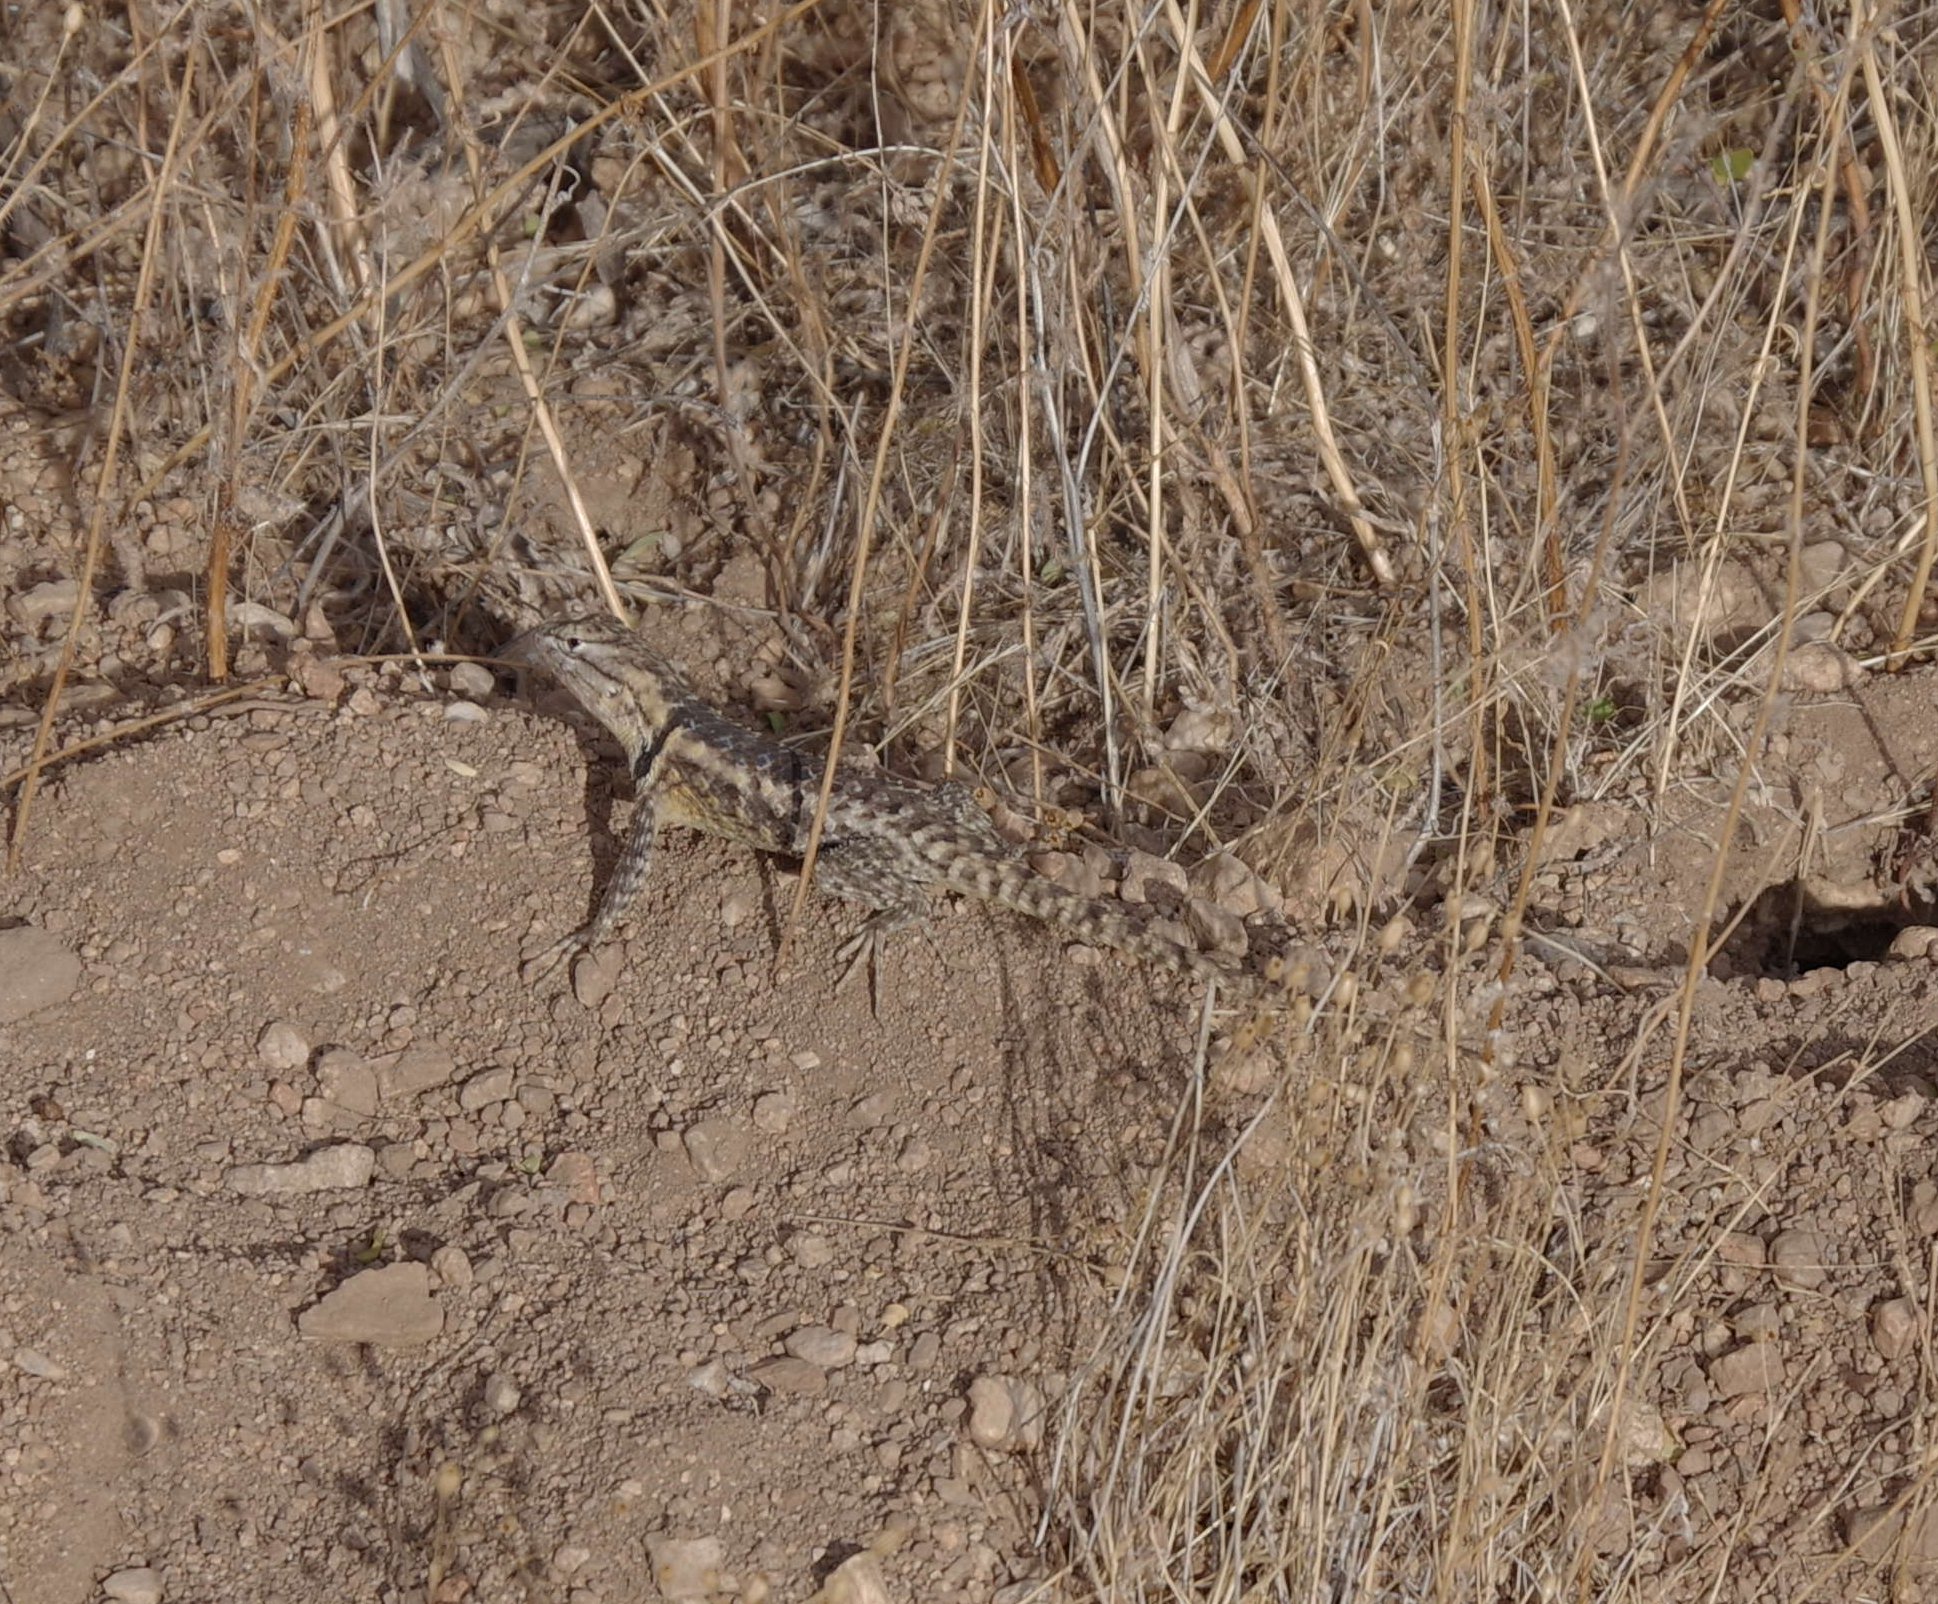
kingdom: Animalia
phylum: Chordata
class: Squamata
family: Phrynosomatidae
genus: Sceloporus
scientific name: Sceloporus magister
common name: Desert spiny lizard
